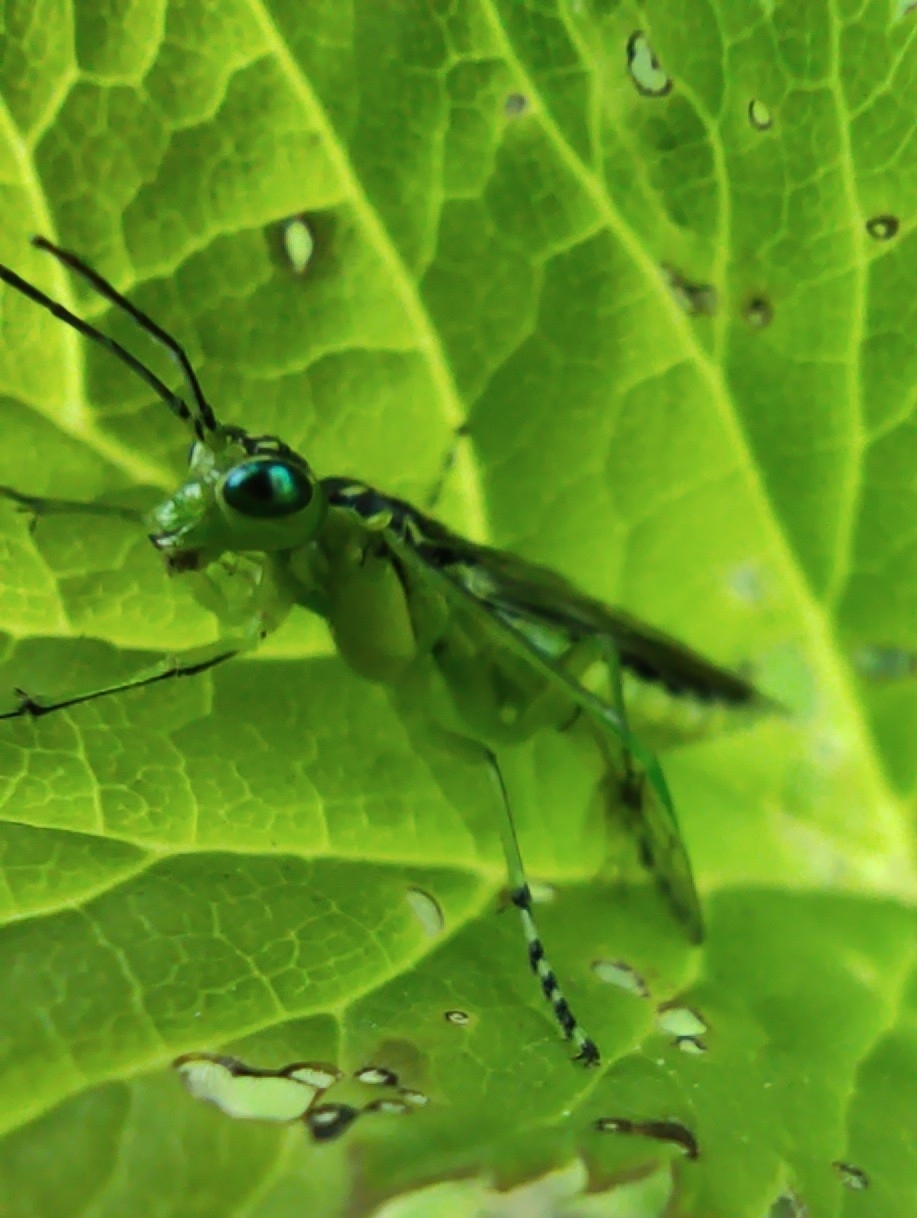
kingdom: Animalia
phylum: Arthropoda
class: Insecta
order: Hymenoptera
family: Tenthredinidae
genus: Rhogogaster
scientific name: Rhogogaster viridis
